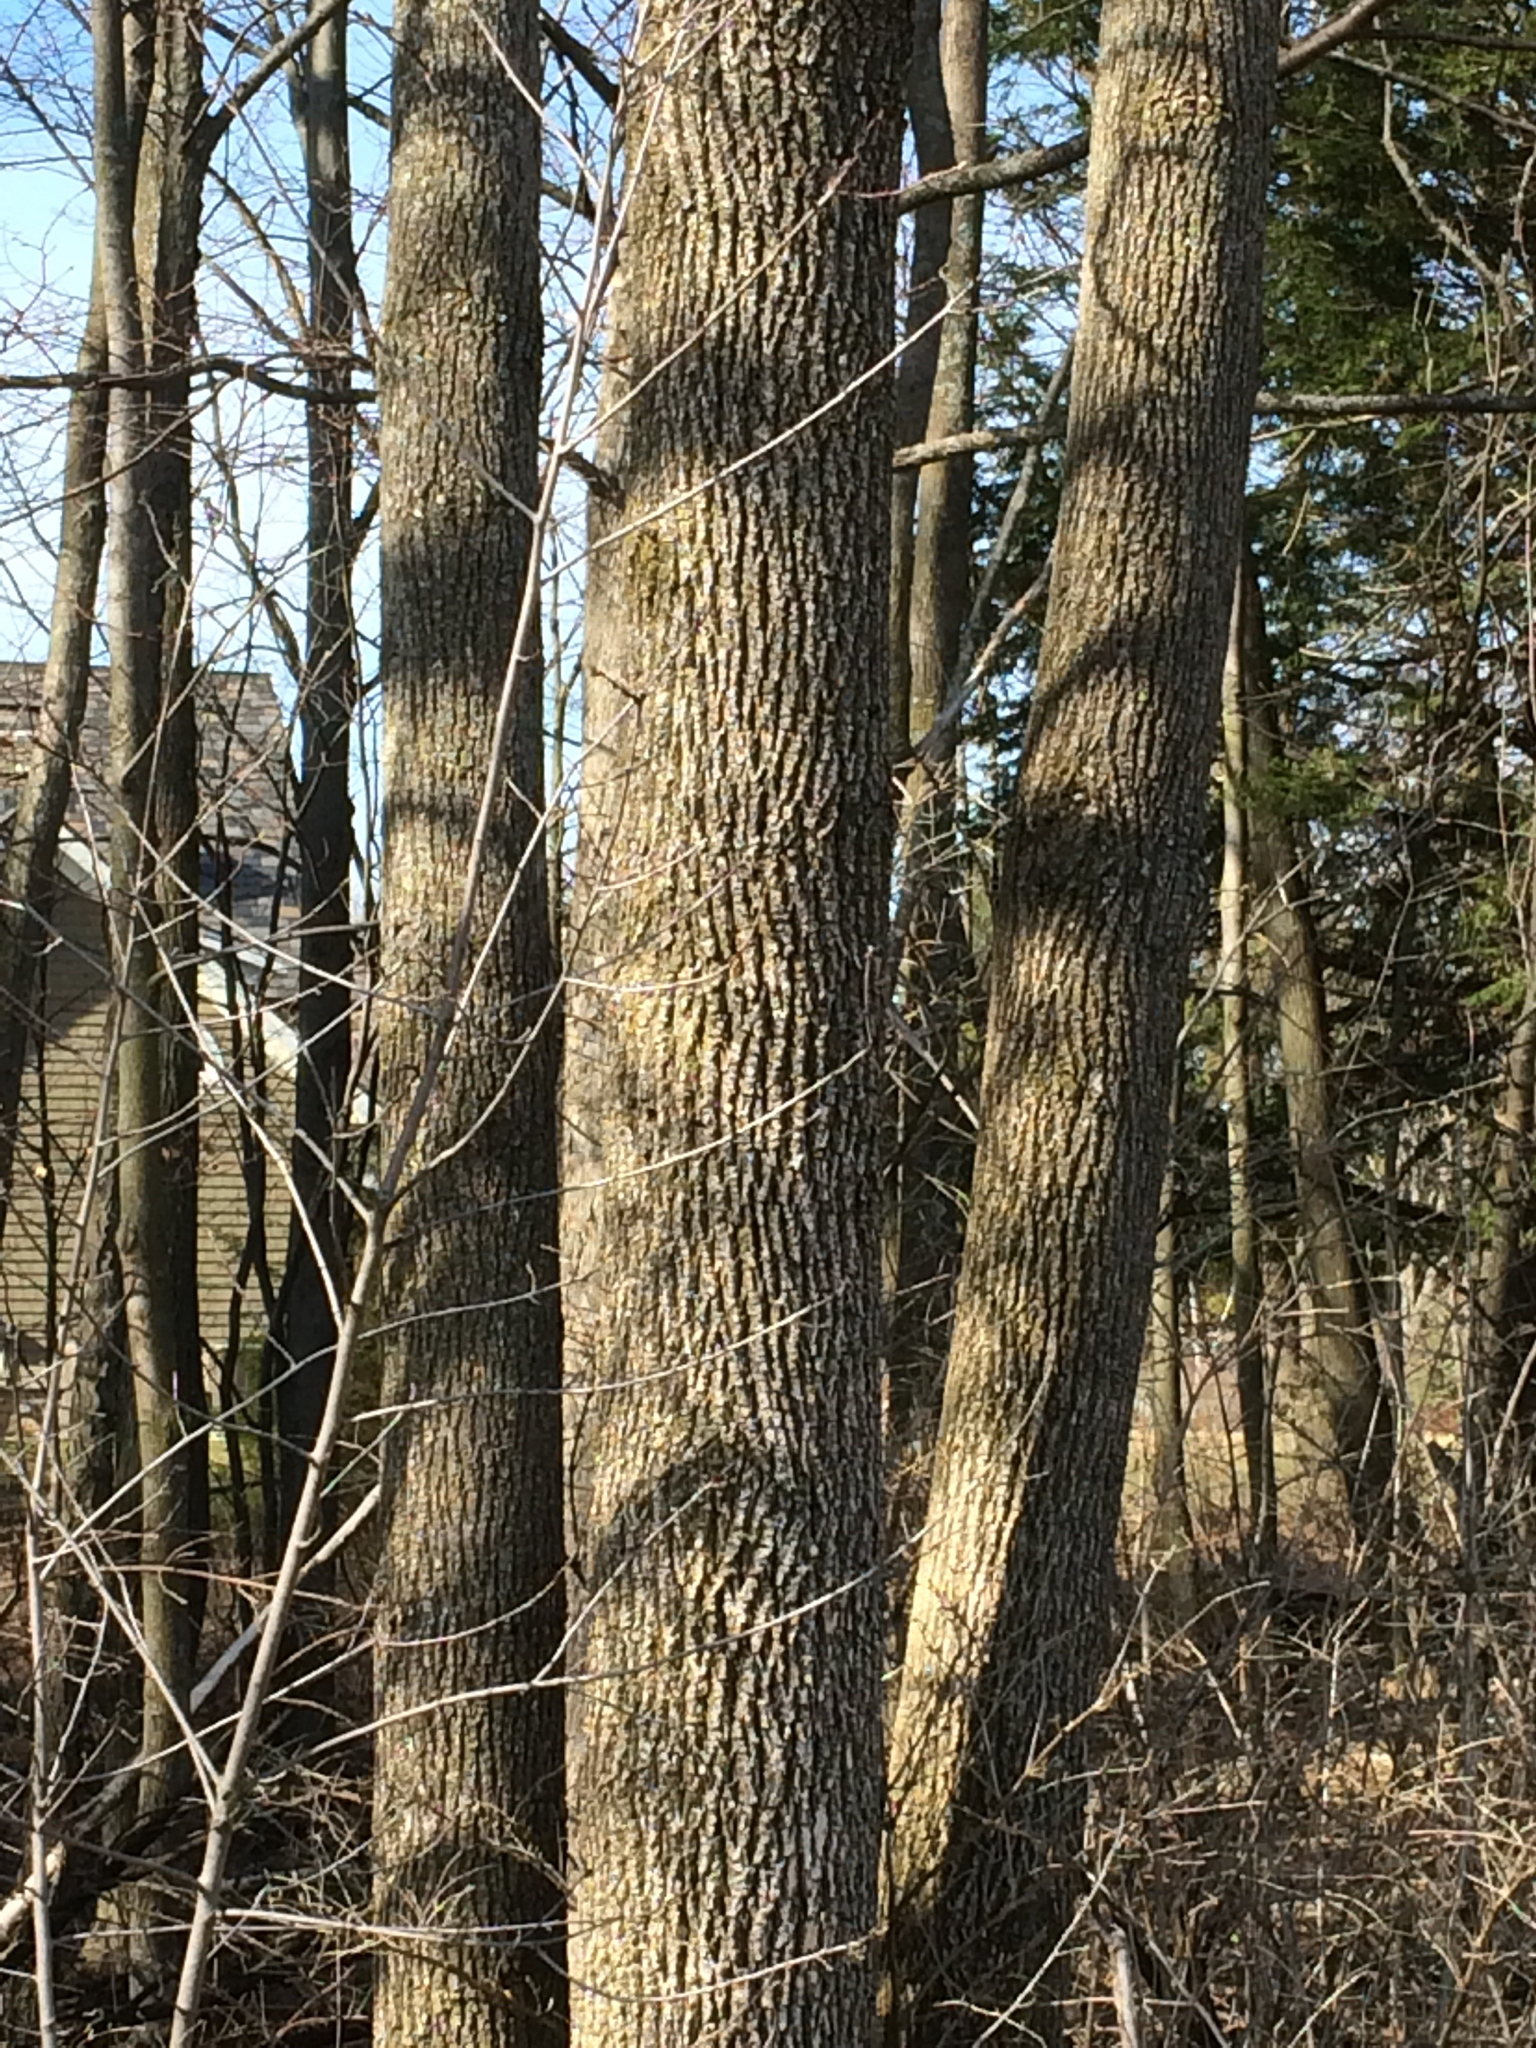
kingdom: Plantae
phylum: Tracheophyta
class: Magnoliopsida
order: Lamiales
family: Oleaceae
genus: Fraxinus
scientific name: Fraxinus americana
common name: White ash
